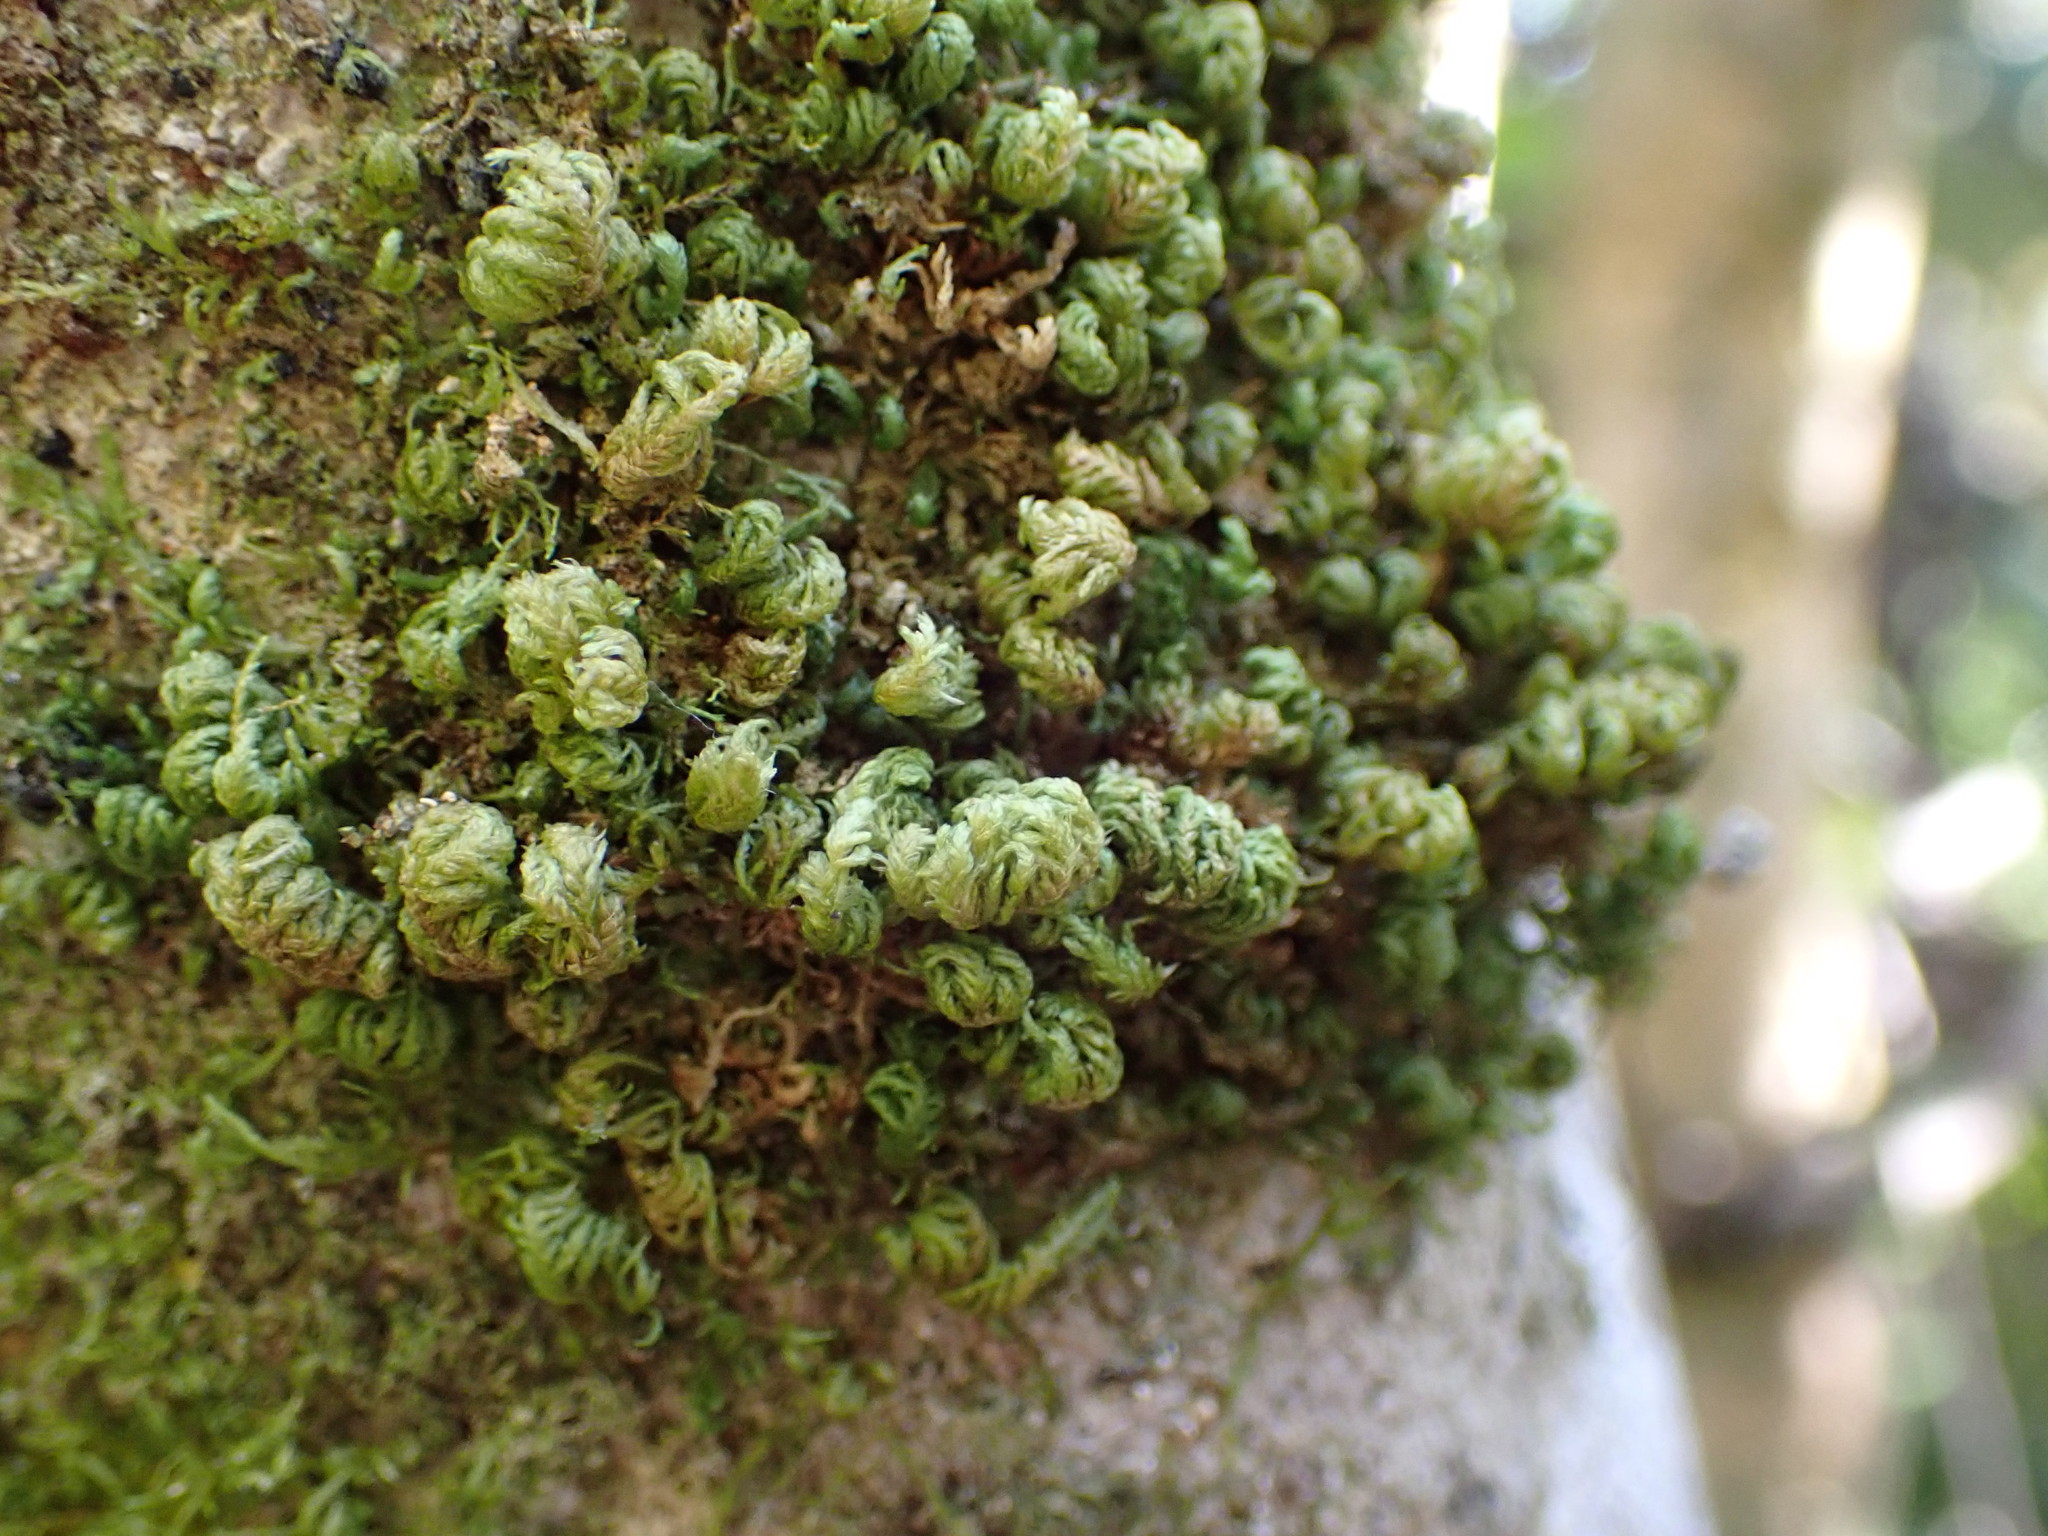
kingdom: Plantae
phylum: Bryophyta
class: Bryopsida
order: Hypnales
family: Neckeraceae
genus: Leptodon
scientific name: Leptodon smithii
